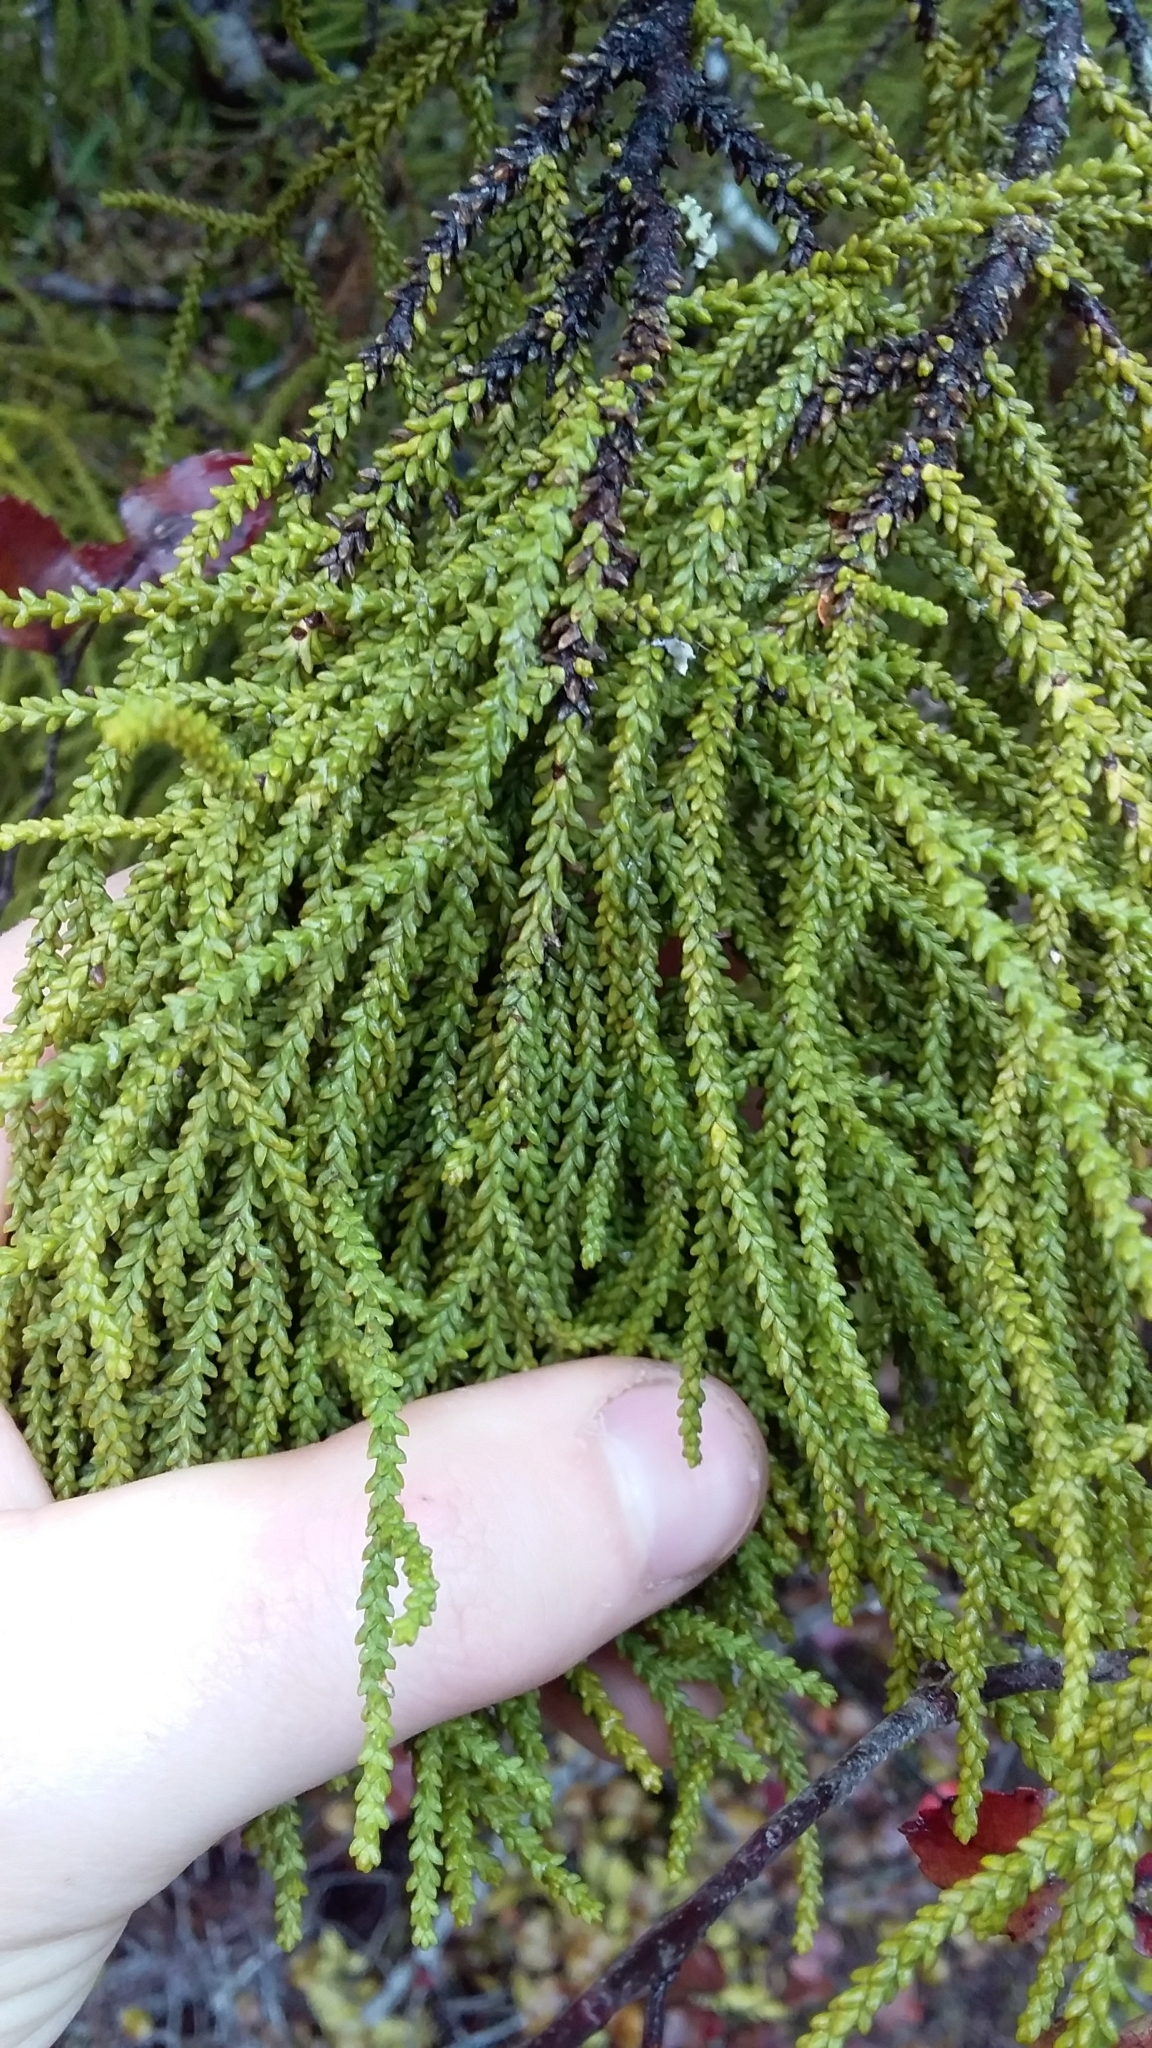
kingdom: Plantae
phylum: Tracheophyta
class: Pinopsida
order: Pinales
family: Podocarpaceae
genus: Lepidothamnus
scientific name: Lepidothamnus intermedius
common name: Yellow silver pine
